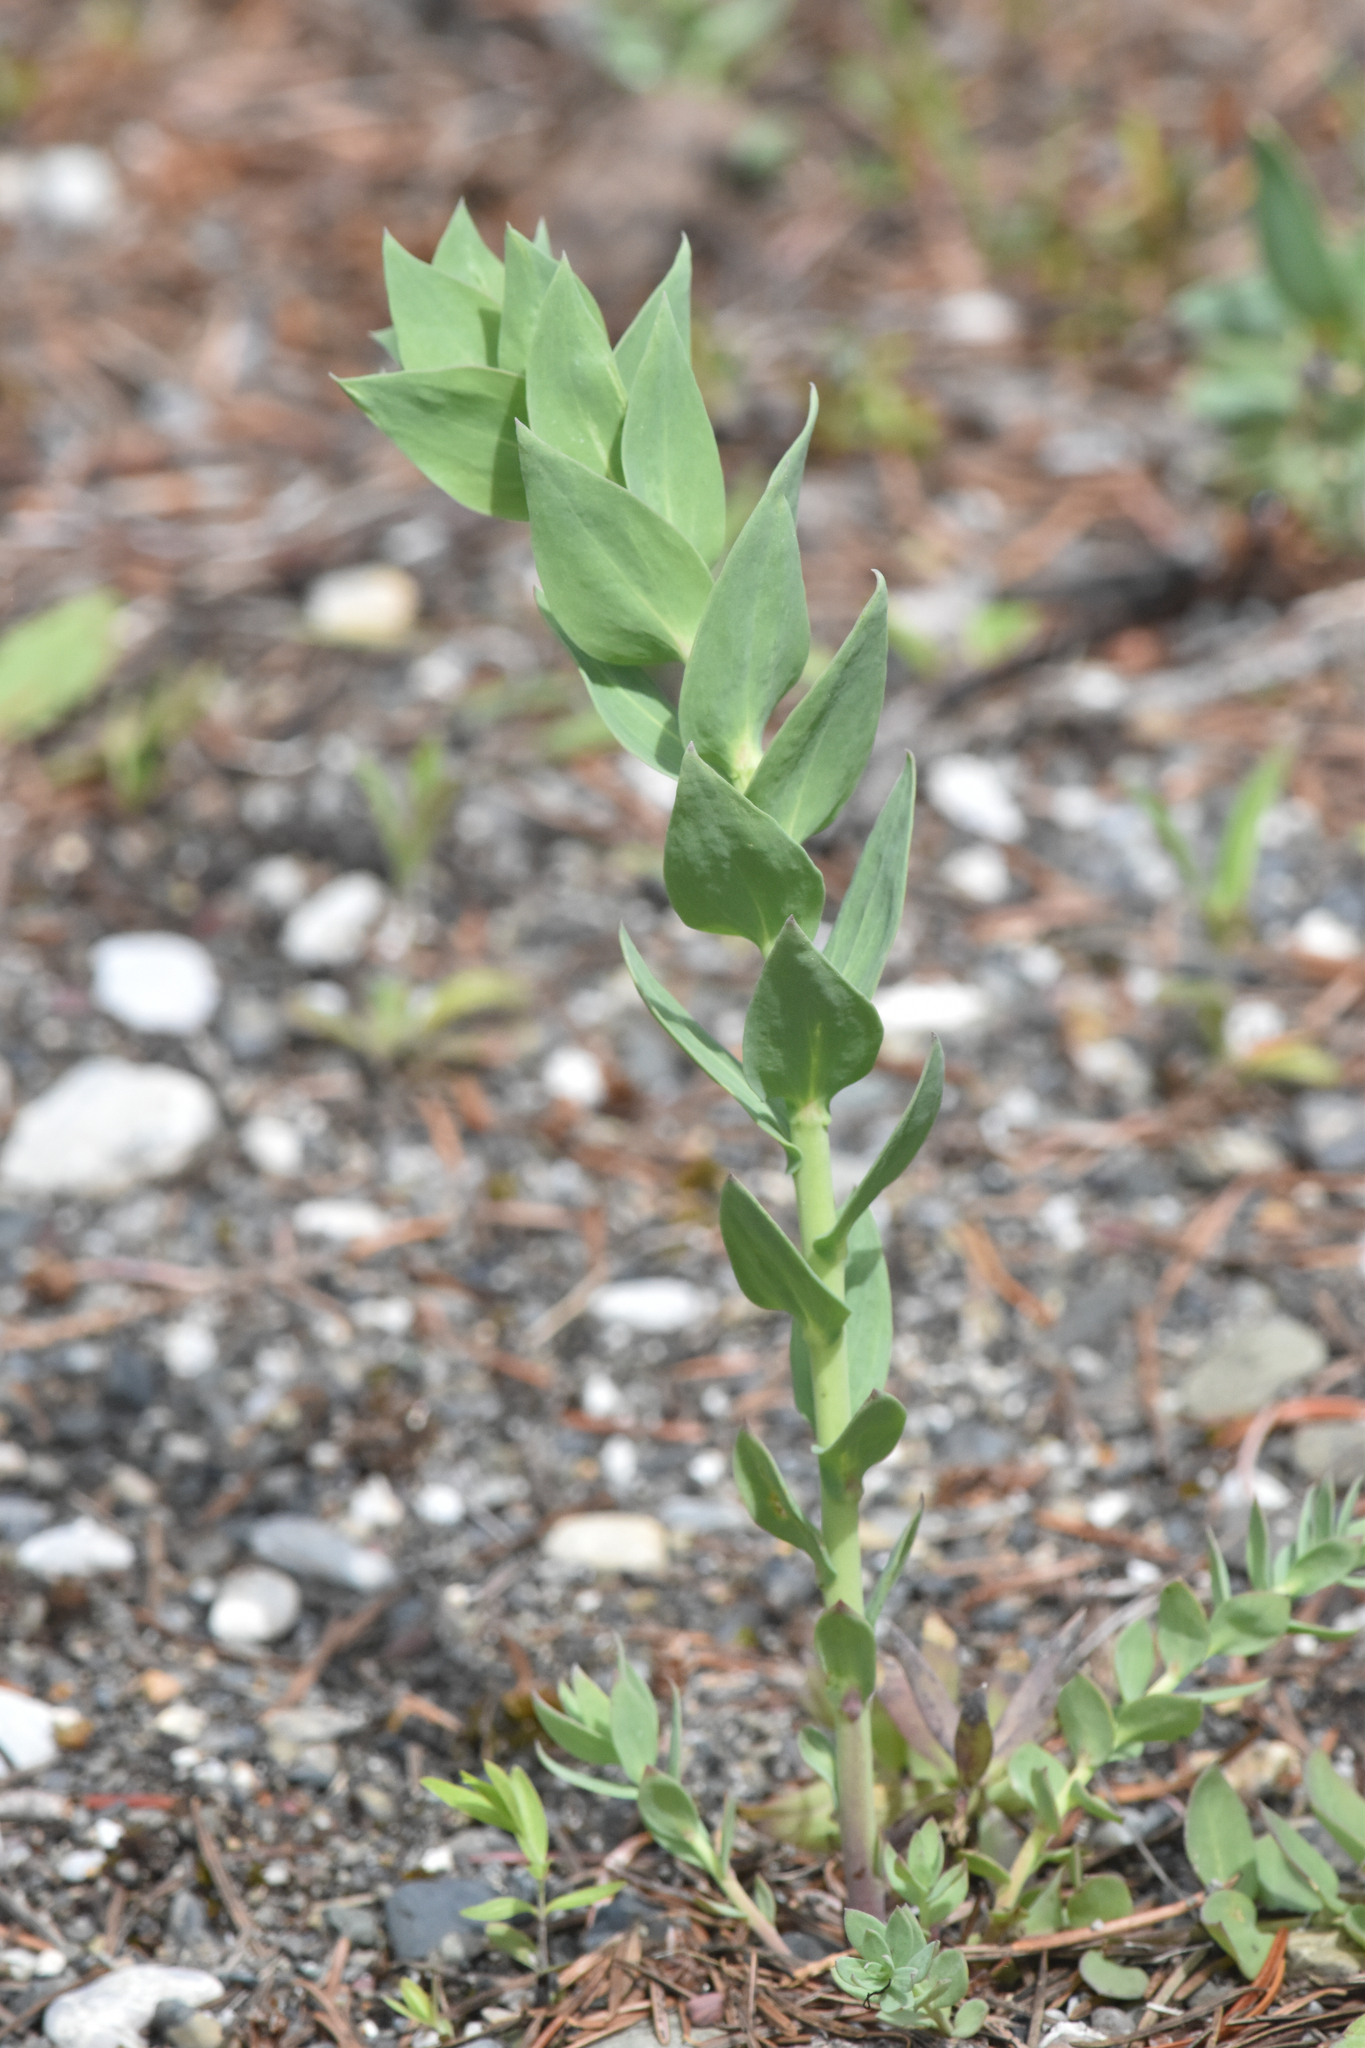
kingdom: Plantae
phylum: Tracheophyta
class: Magnoliopsida
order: Lamiales
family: Plantaginaceae
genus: Linaria
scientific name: Linaria dalmatica
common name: Dalmatian toadflax
